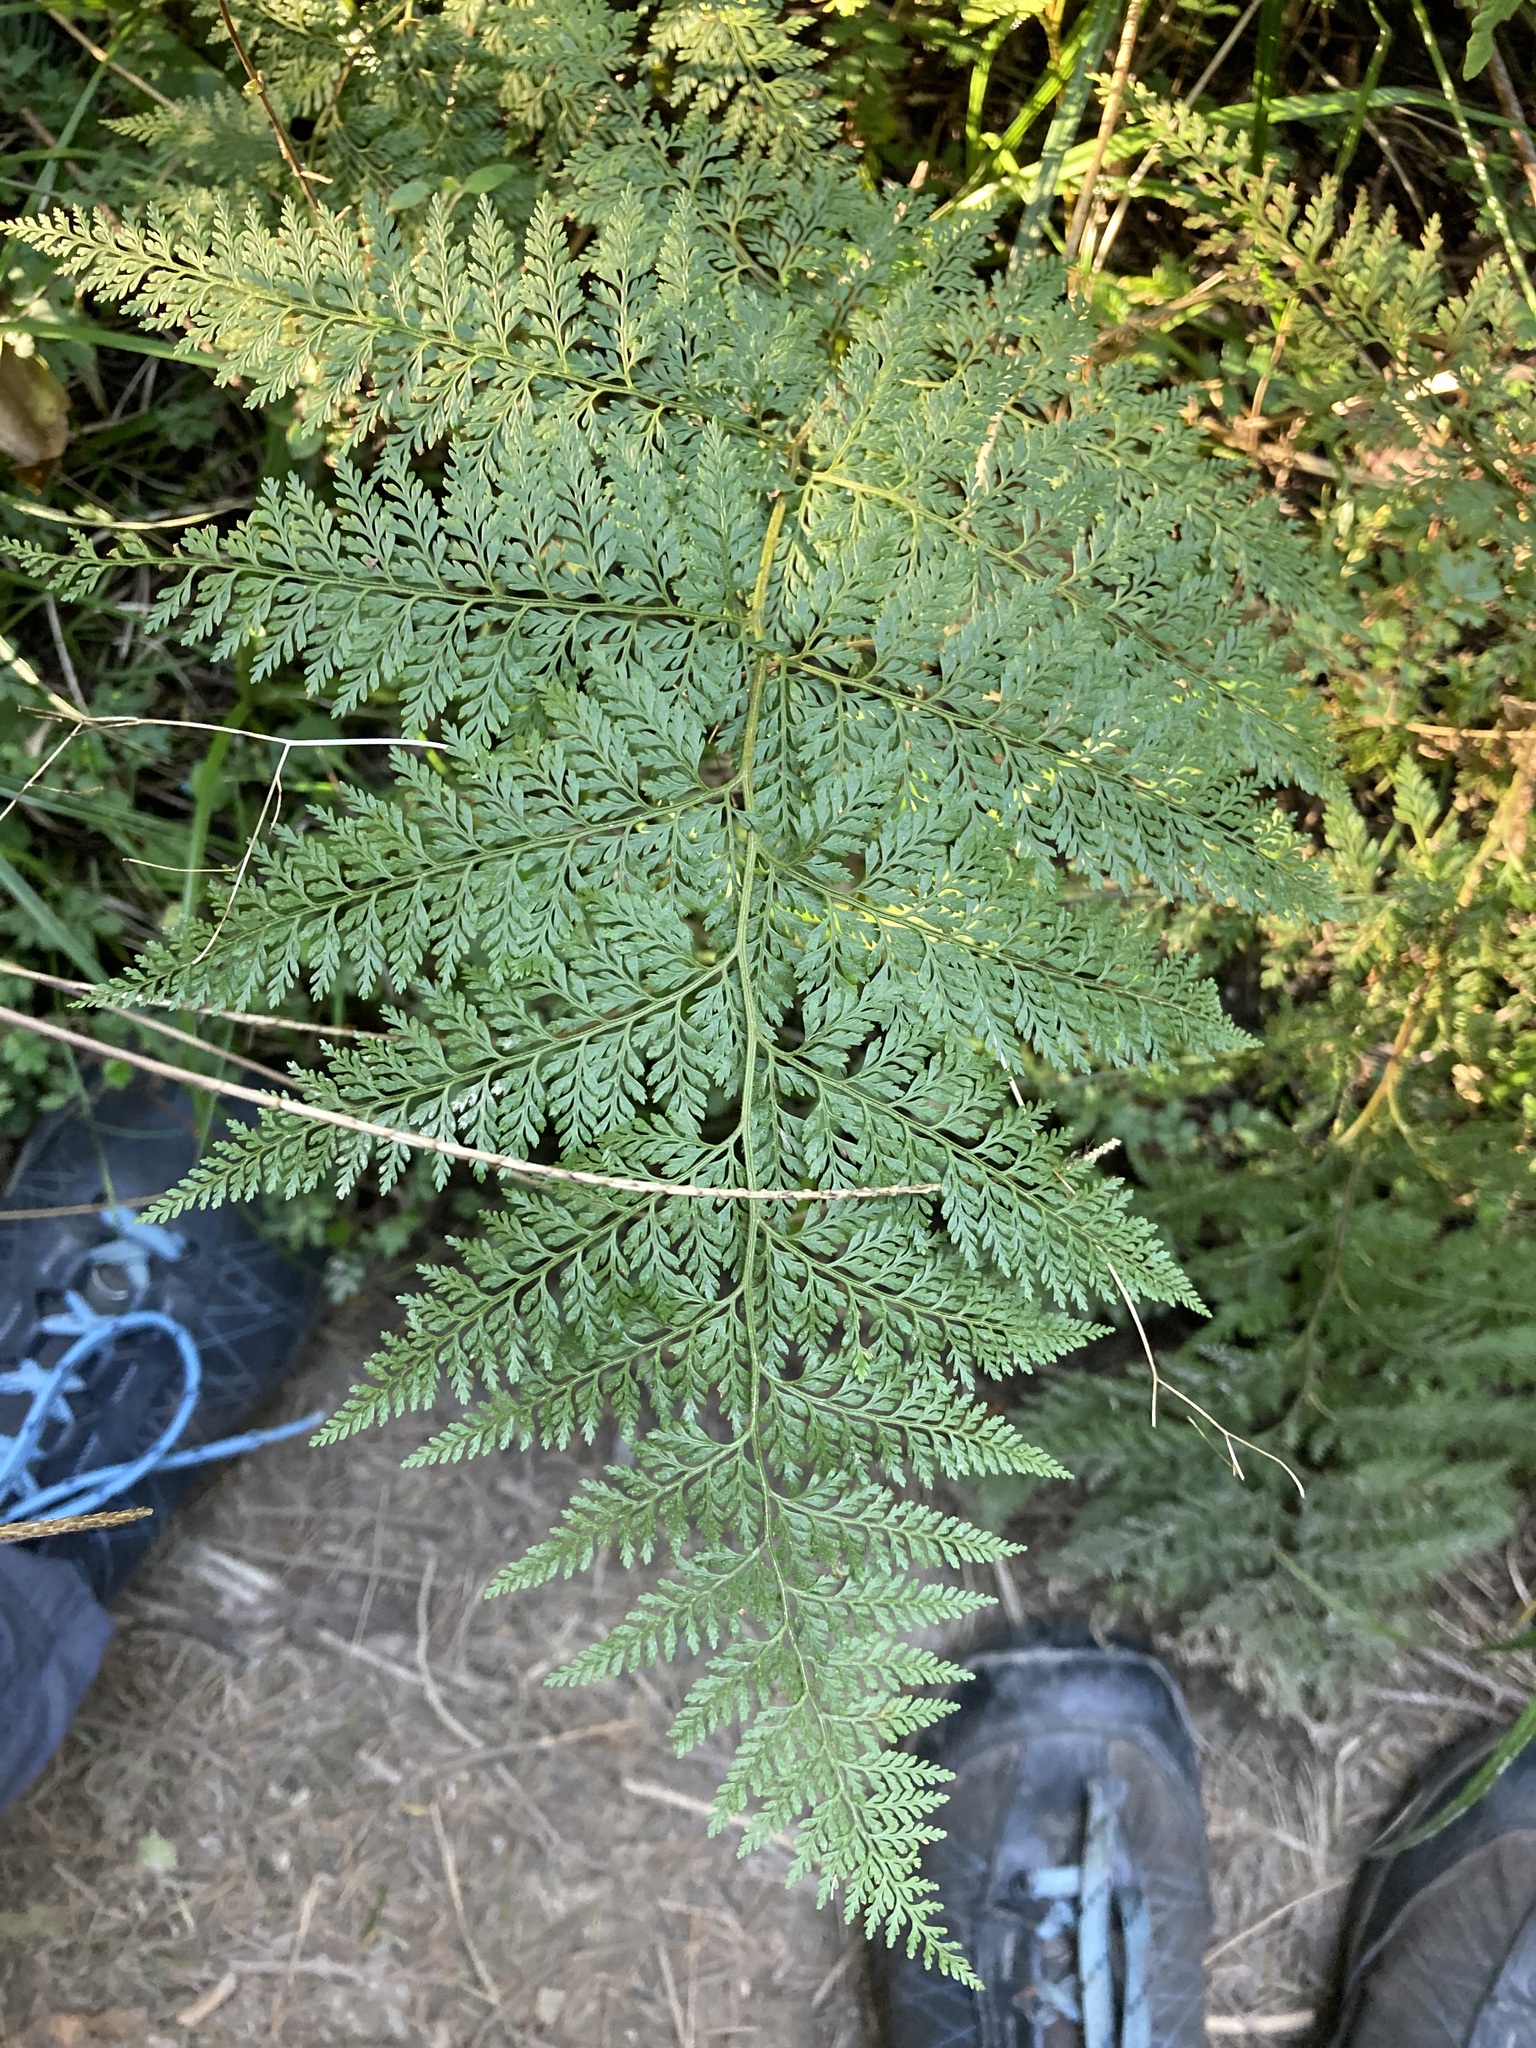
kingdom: Plantae
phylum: Tracheophyta
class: Polypodiopsida
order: Polypodiales
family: Dennstaedtiaceae
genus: Paesia
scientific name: Paesia scaberula
